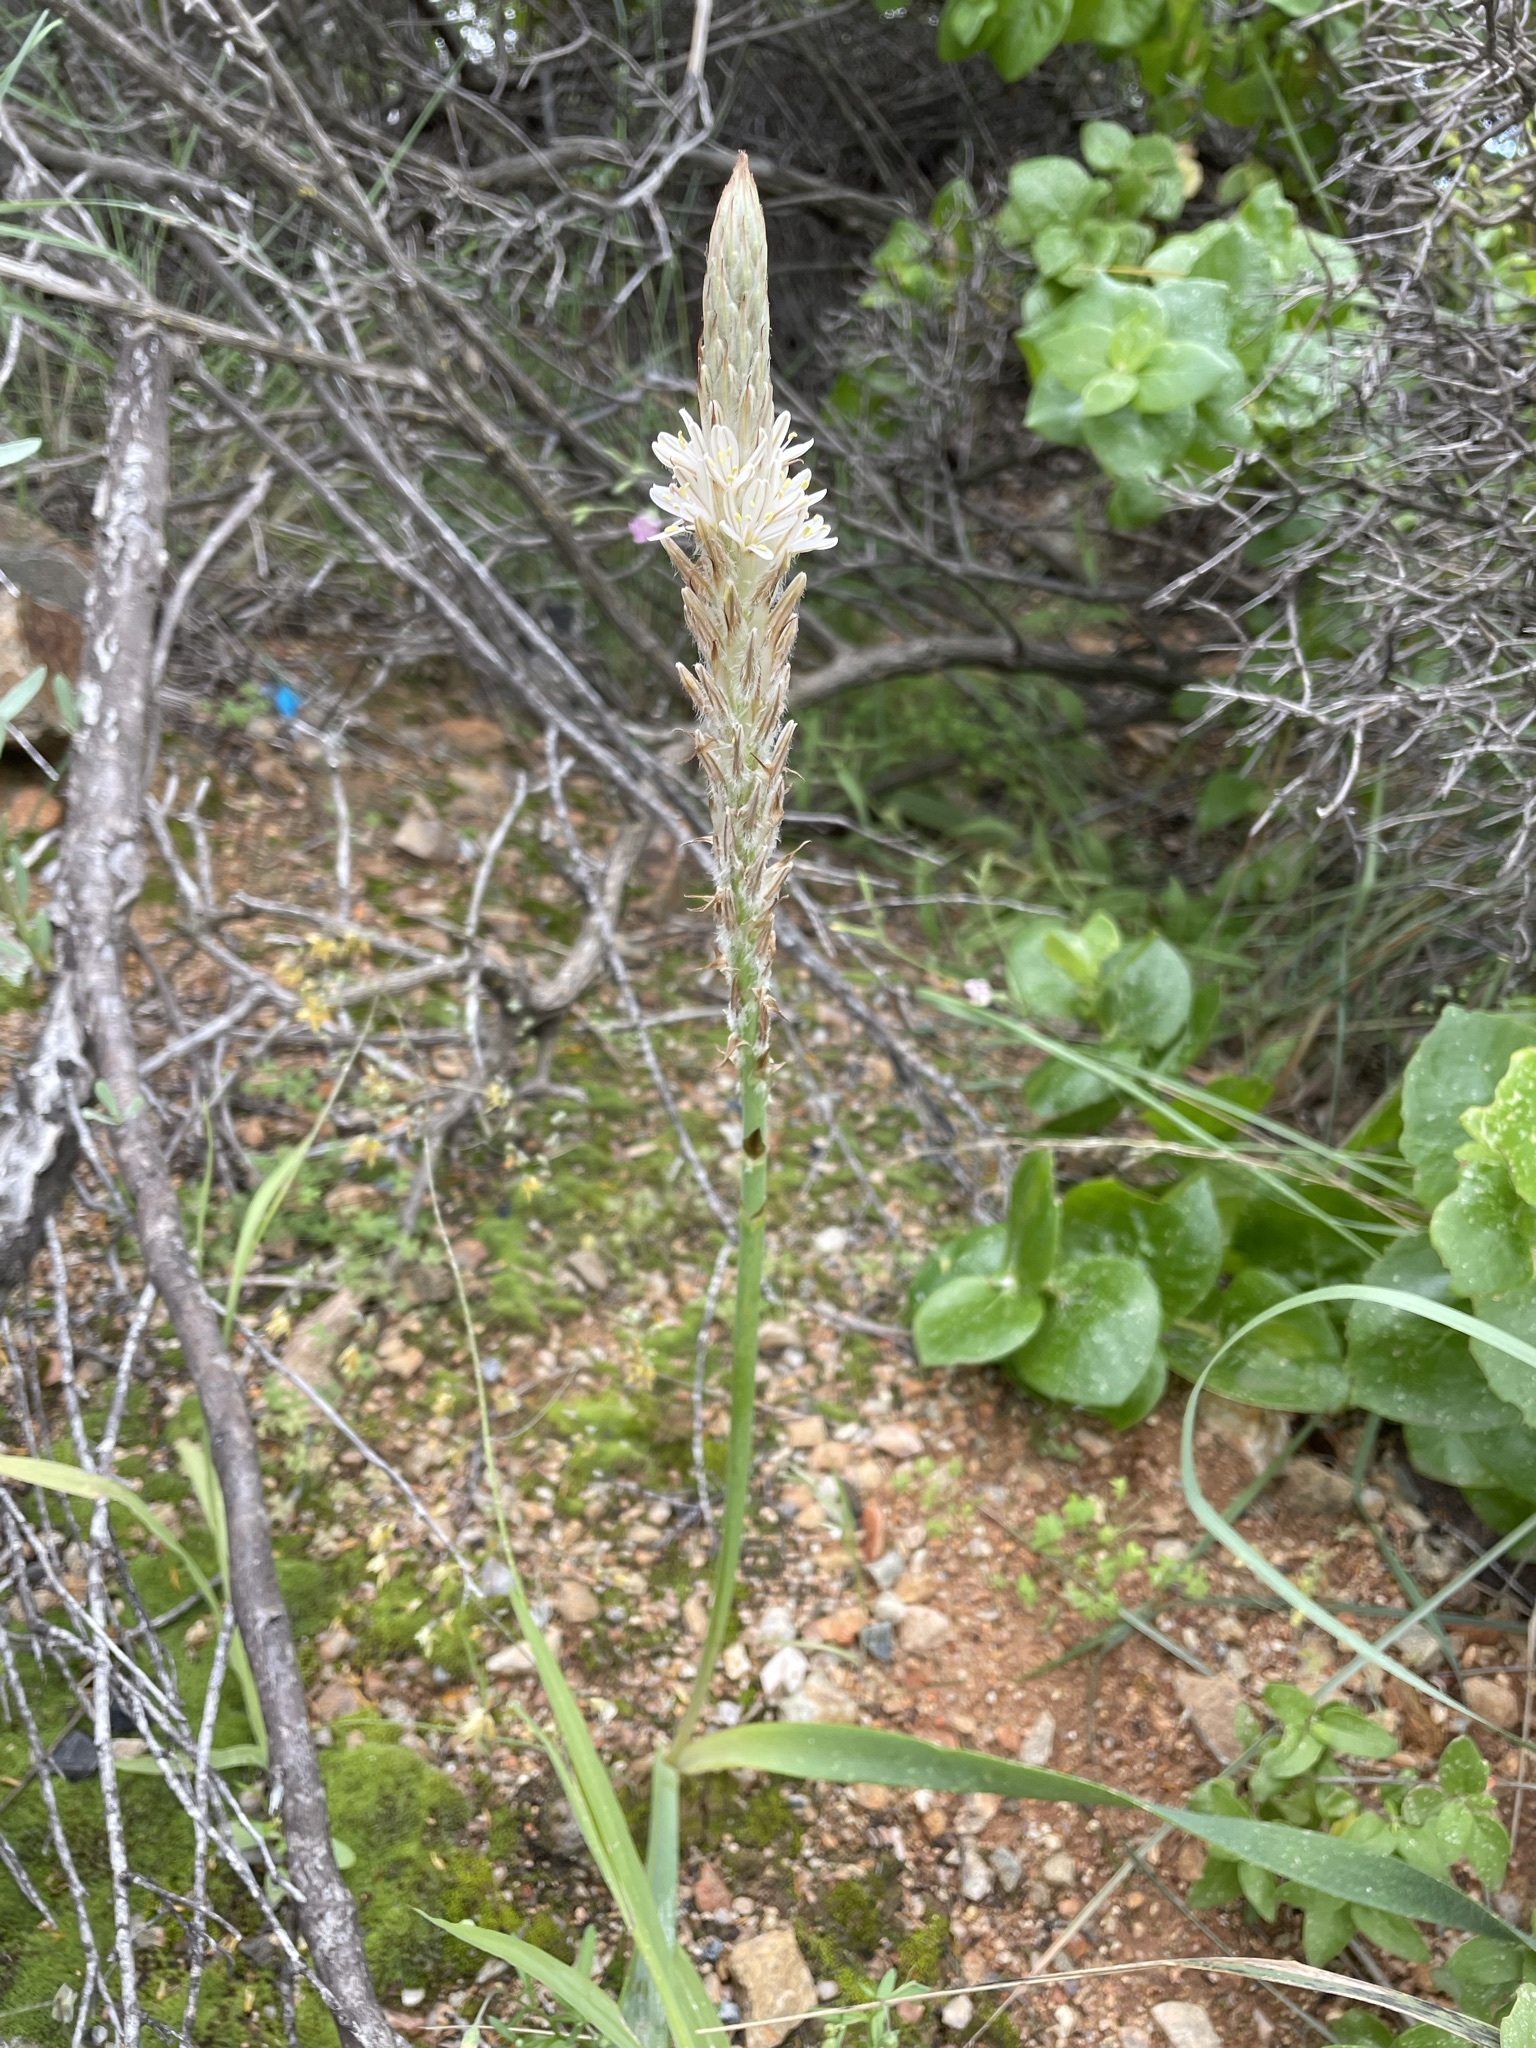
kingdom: Plantae
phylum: Tracheophyta
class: Liliopsida
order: Asparagales
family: Asphodelaceae
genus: Trachyandra
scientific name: Trachyandra falcata
